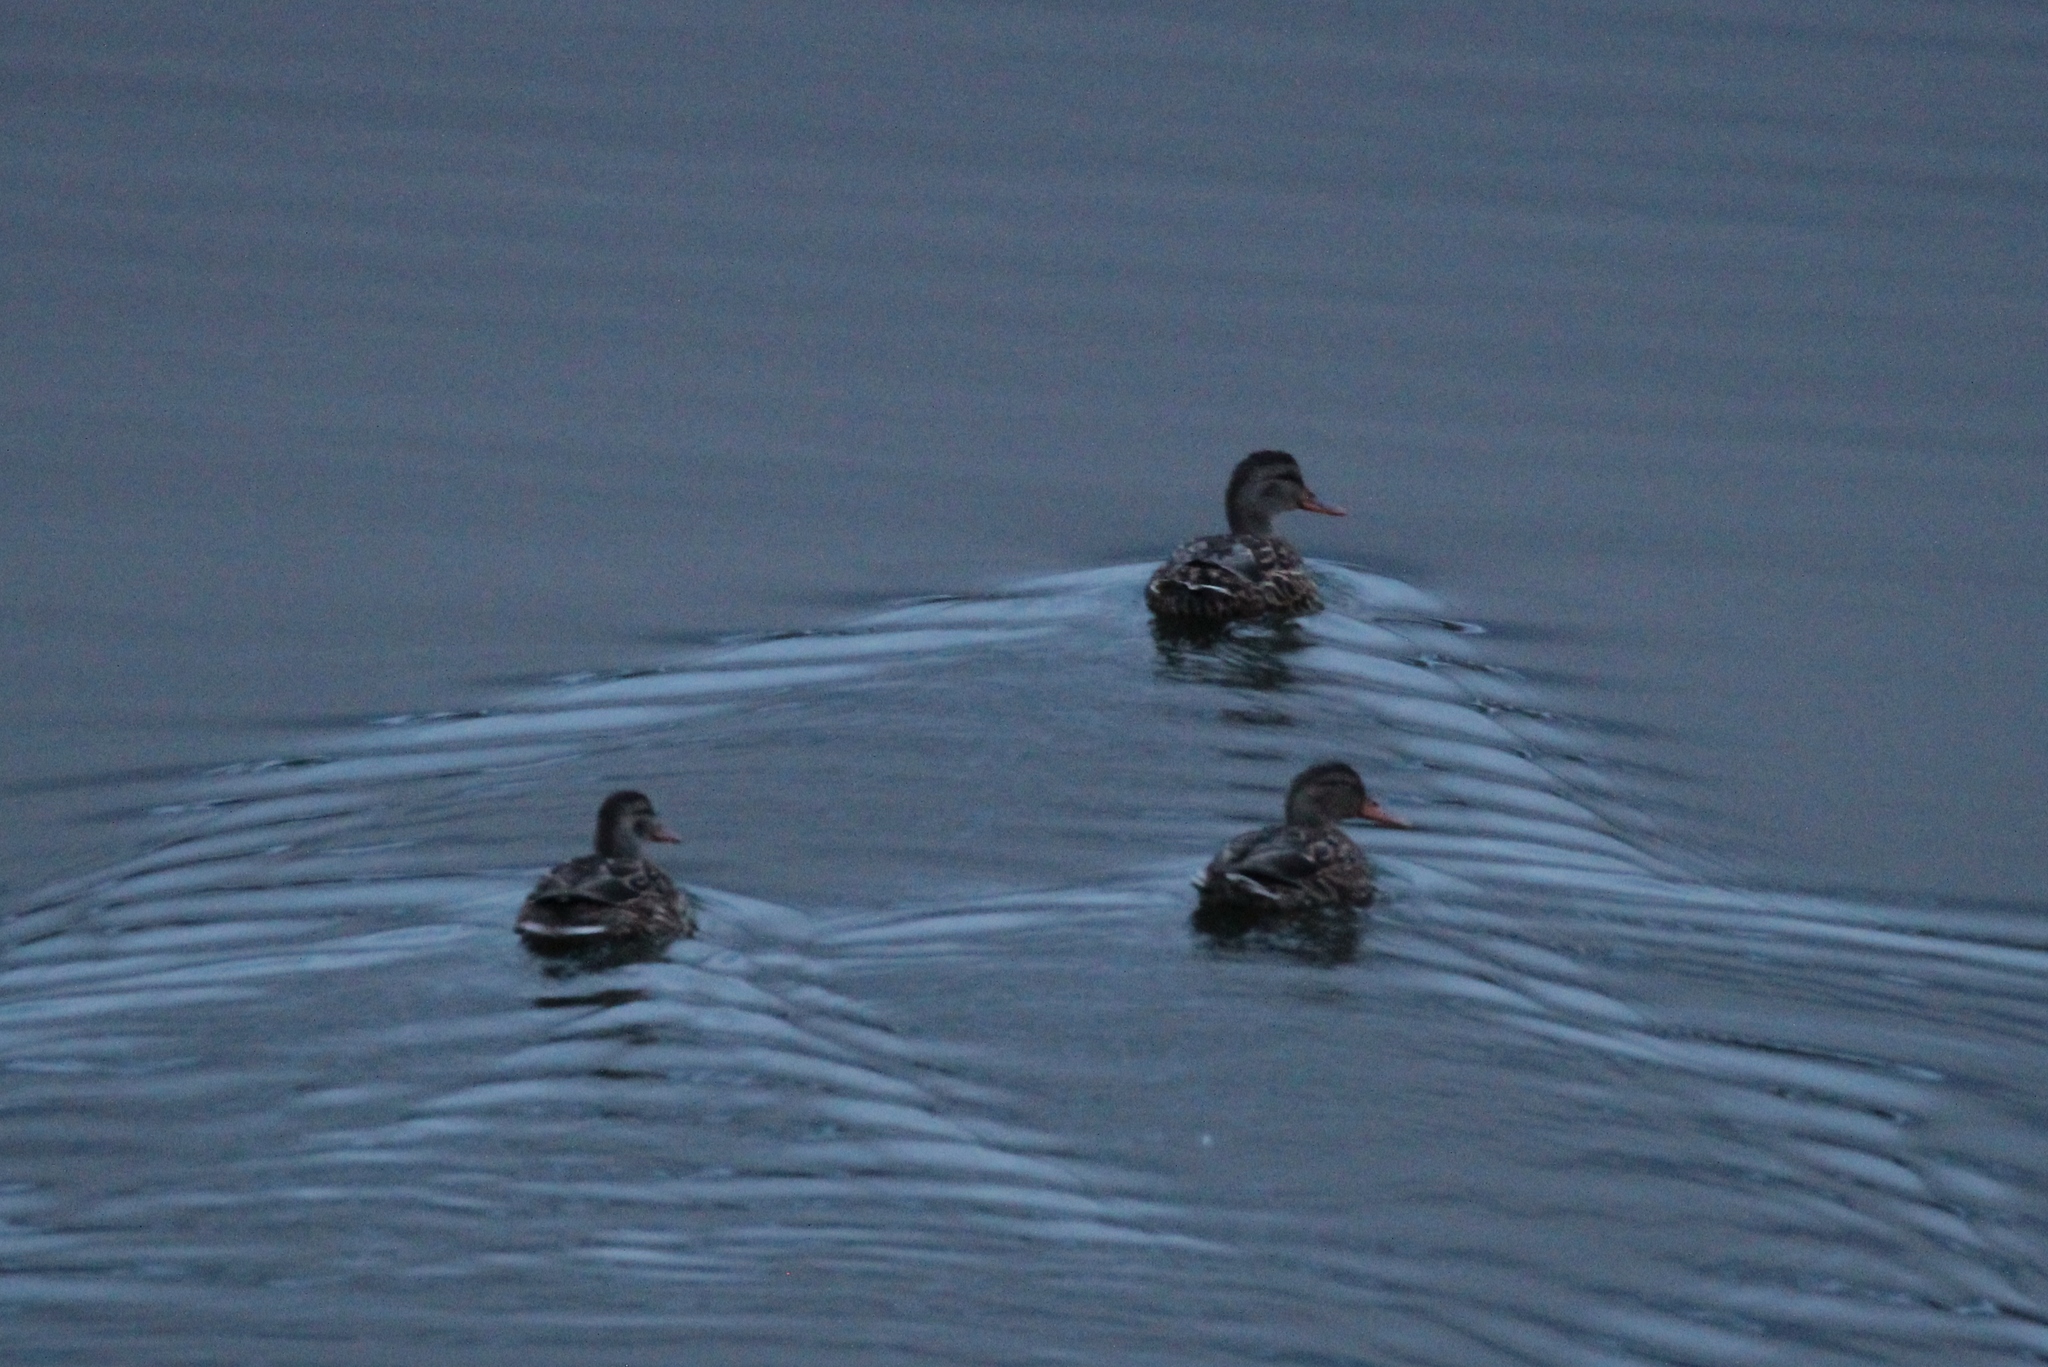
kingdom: Animalia
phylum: Chordata
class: Aves
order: Anseriformes
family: Anatidae
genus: Anas
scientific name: Anas platyrhynchos
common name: Mallard
